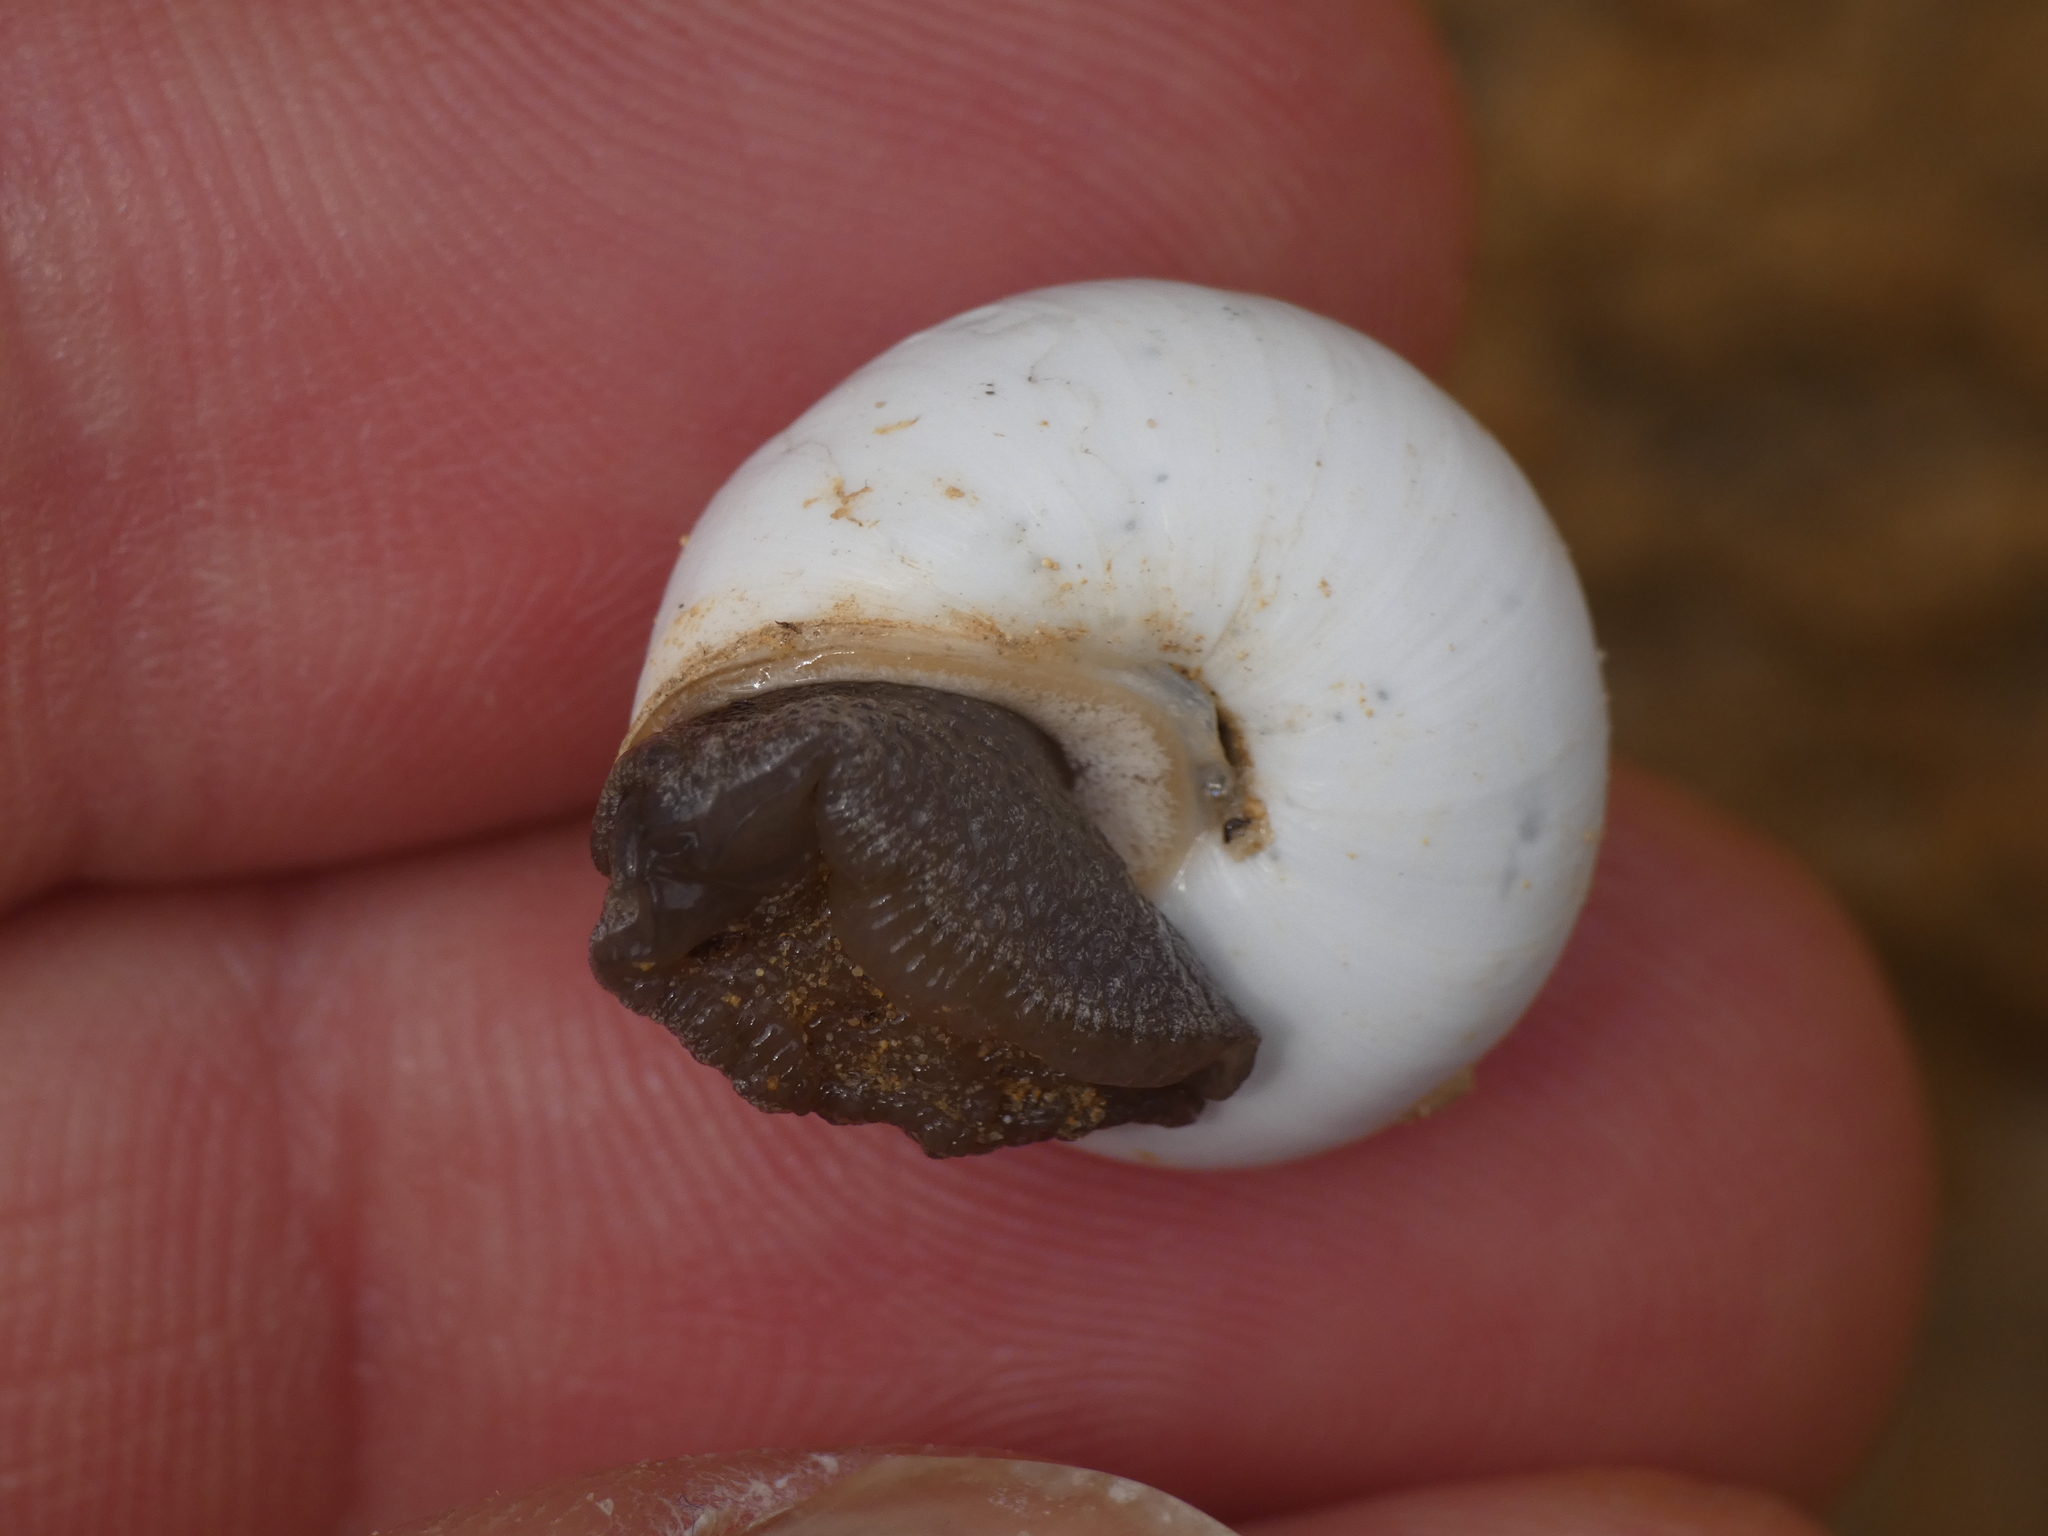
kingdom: Animalia
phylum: Mollusca
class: Gastropoda
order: Stylommatophora
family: Sphincterochilidae
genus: Sphincterochila
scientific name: Sphincterochila candidissima
